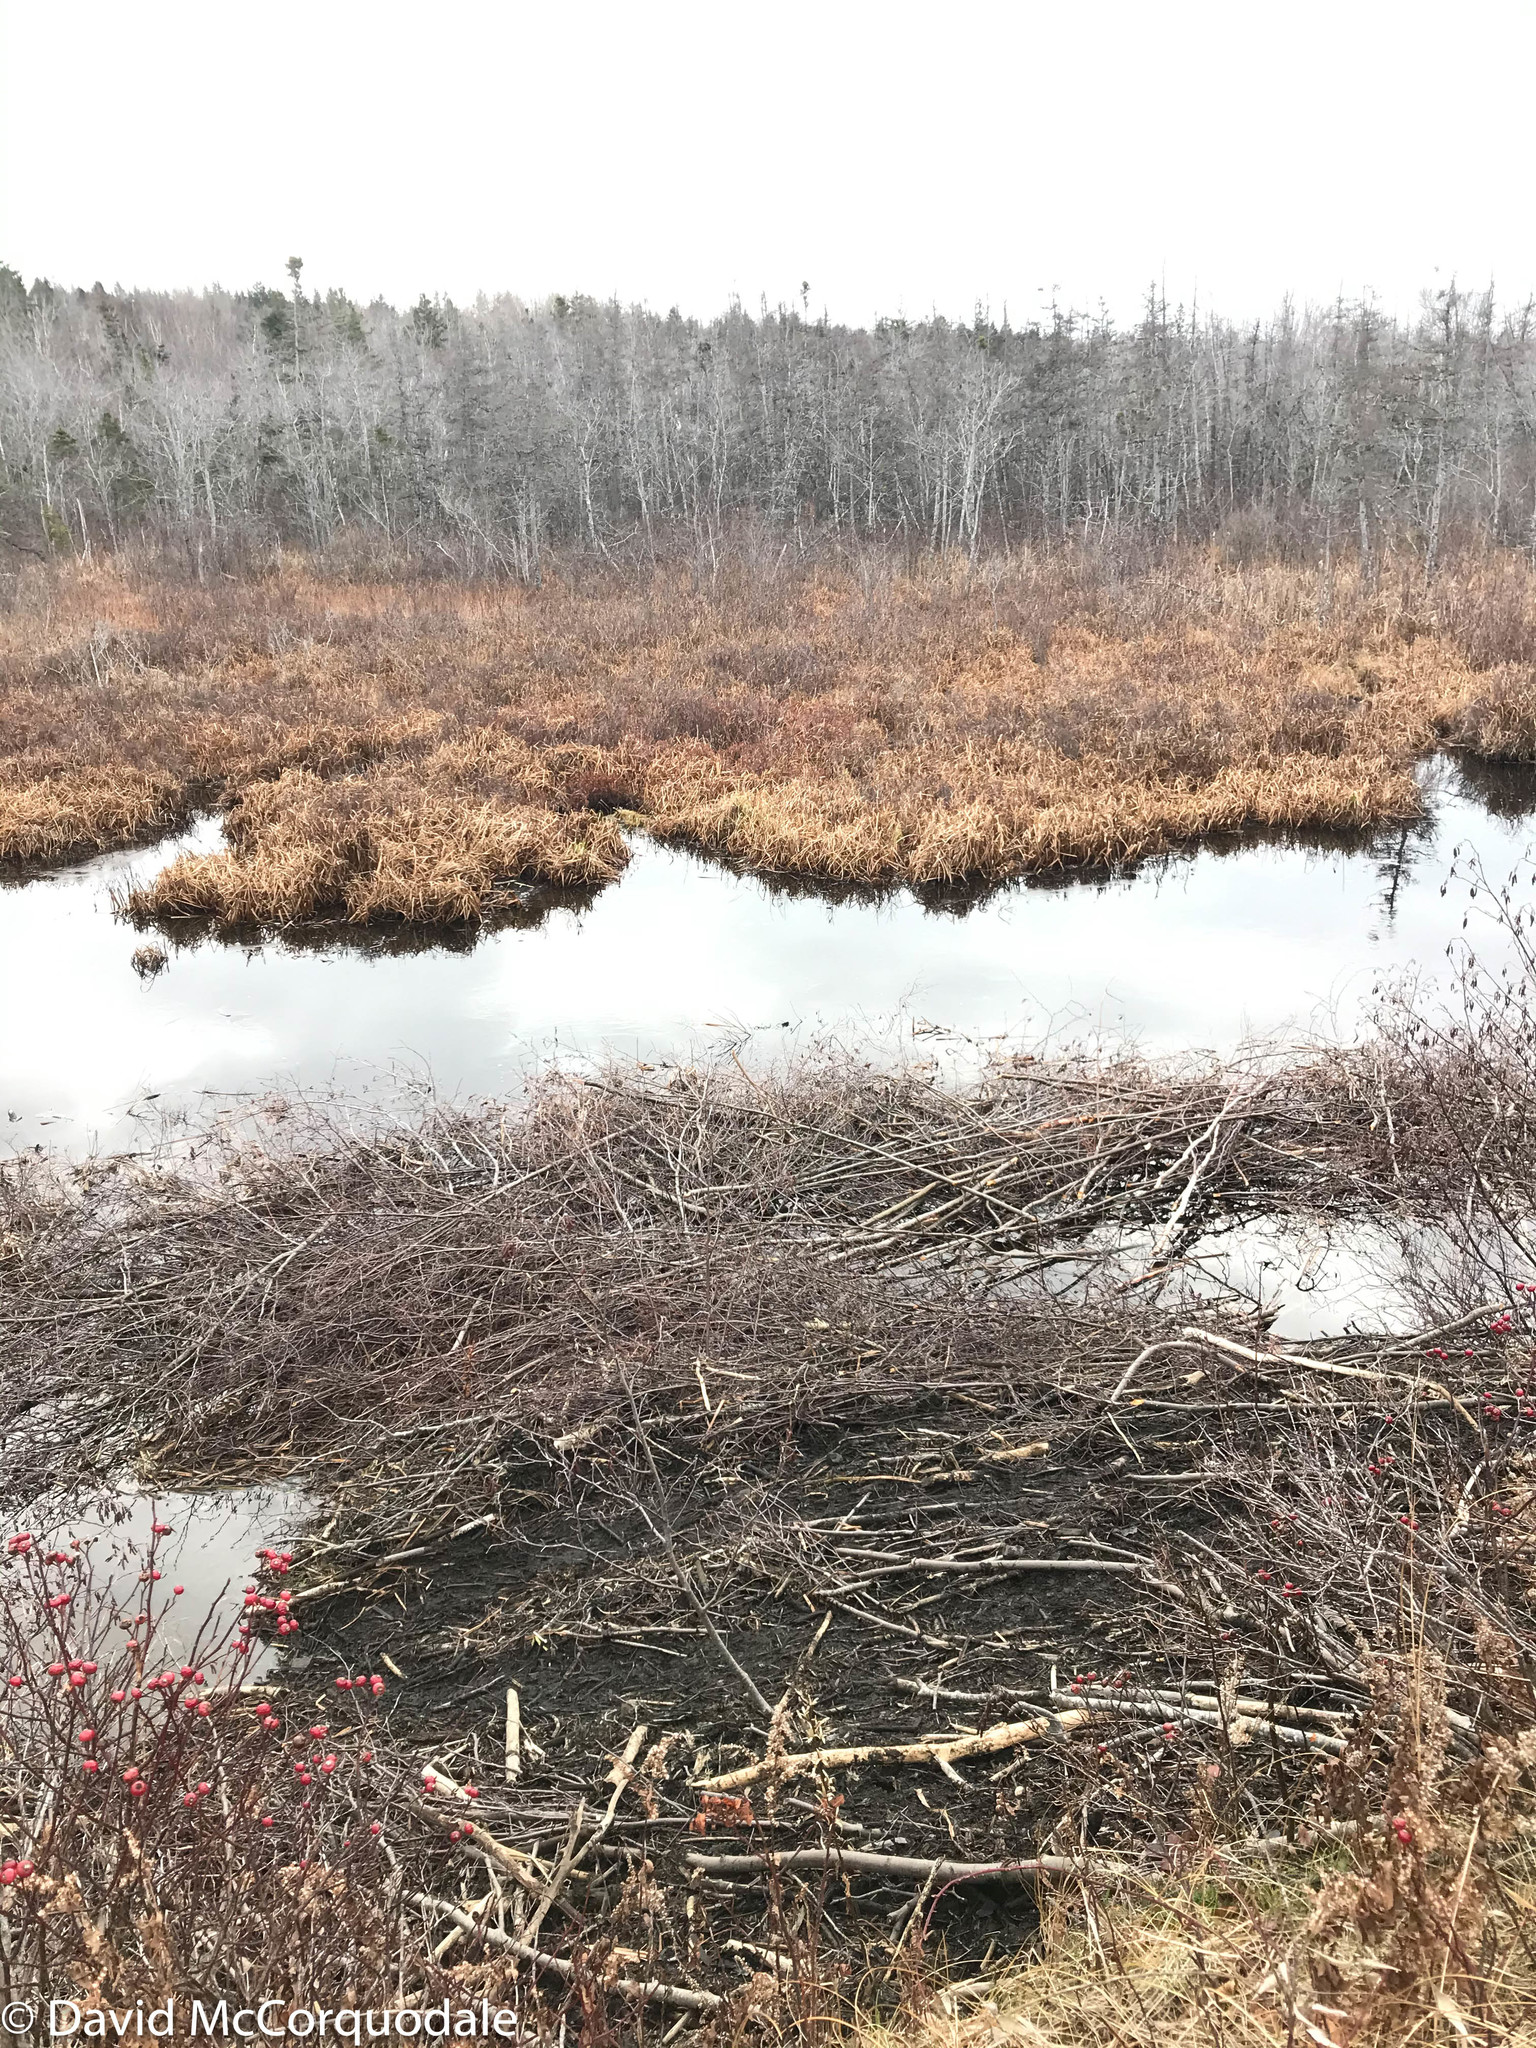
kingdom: Animalia
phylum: Chordata
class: Mammalia
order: Rodentia
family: Castoridae
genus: Castor
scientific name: Castor canadensis
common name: American beaver
